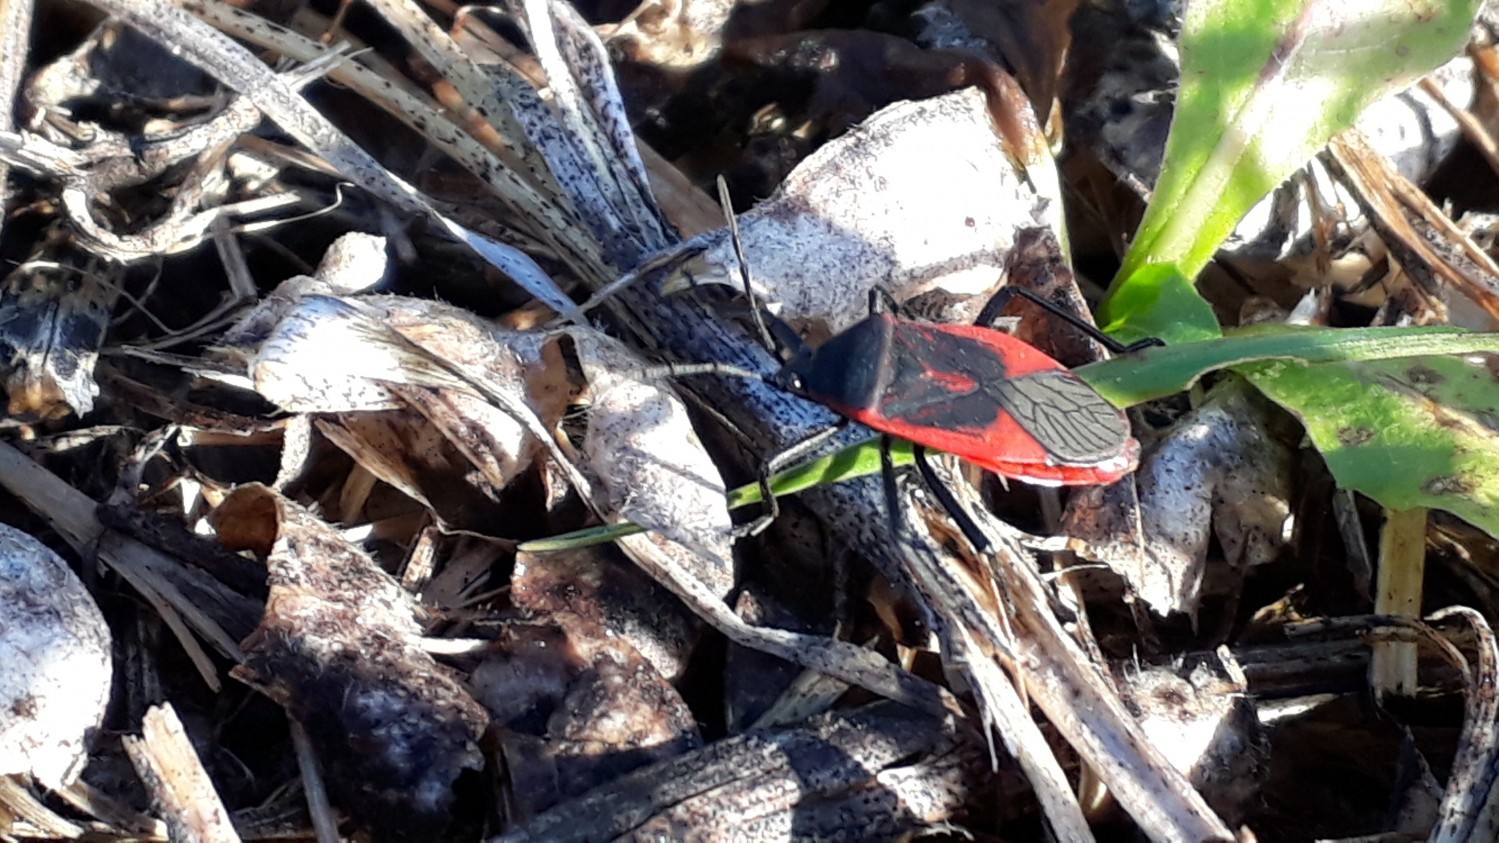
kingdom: Animalia
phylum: Arthropoda
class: Insecta
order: Hemiptera
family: Largidae
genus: Largus
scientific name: Largus rufipennis
